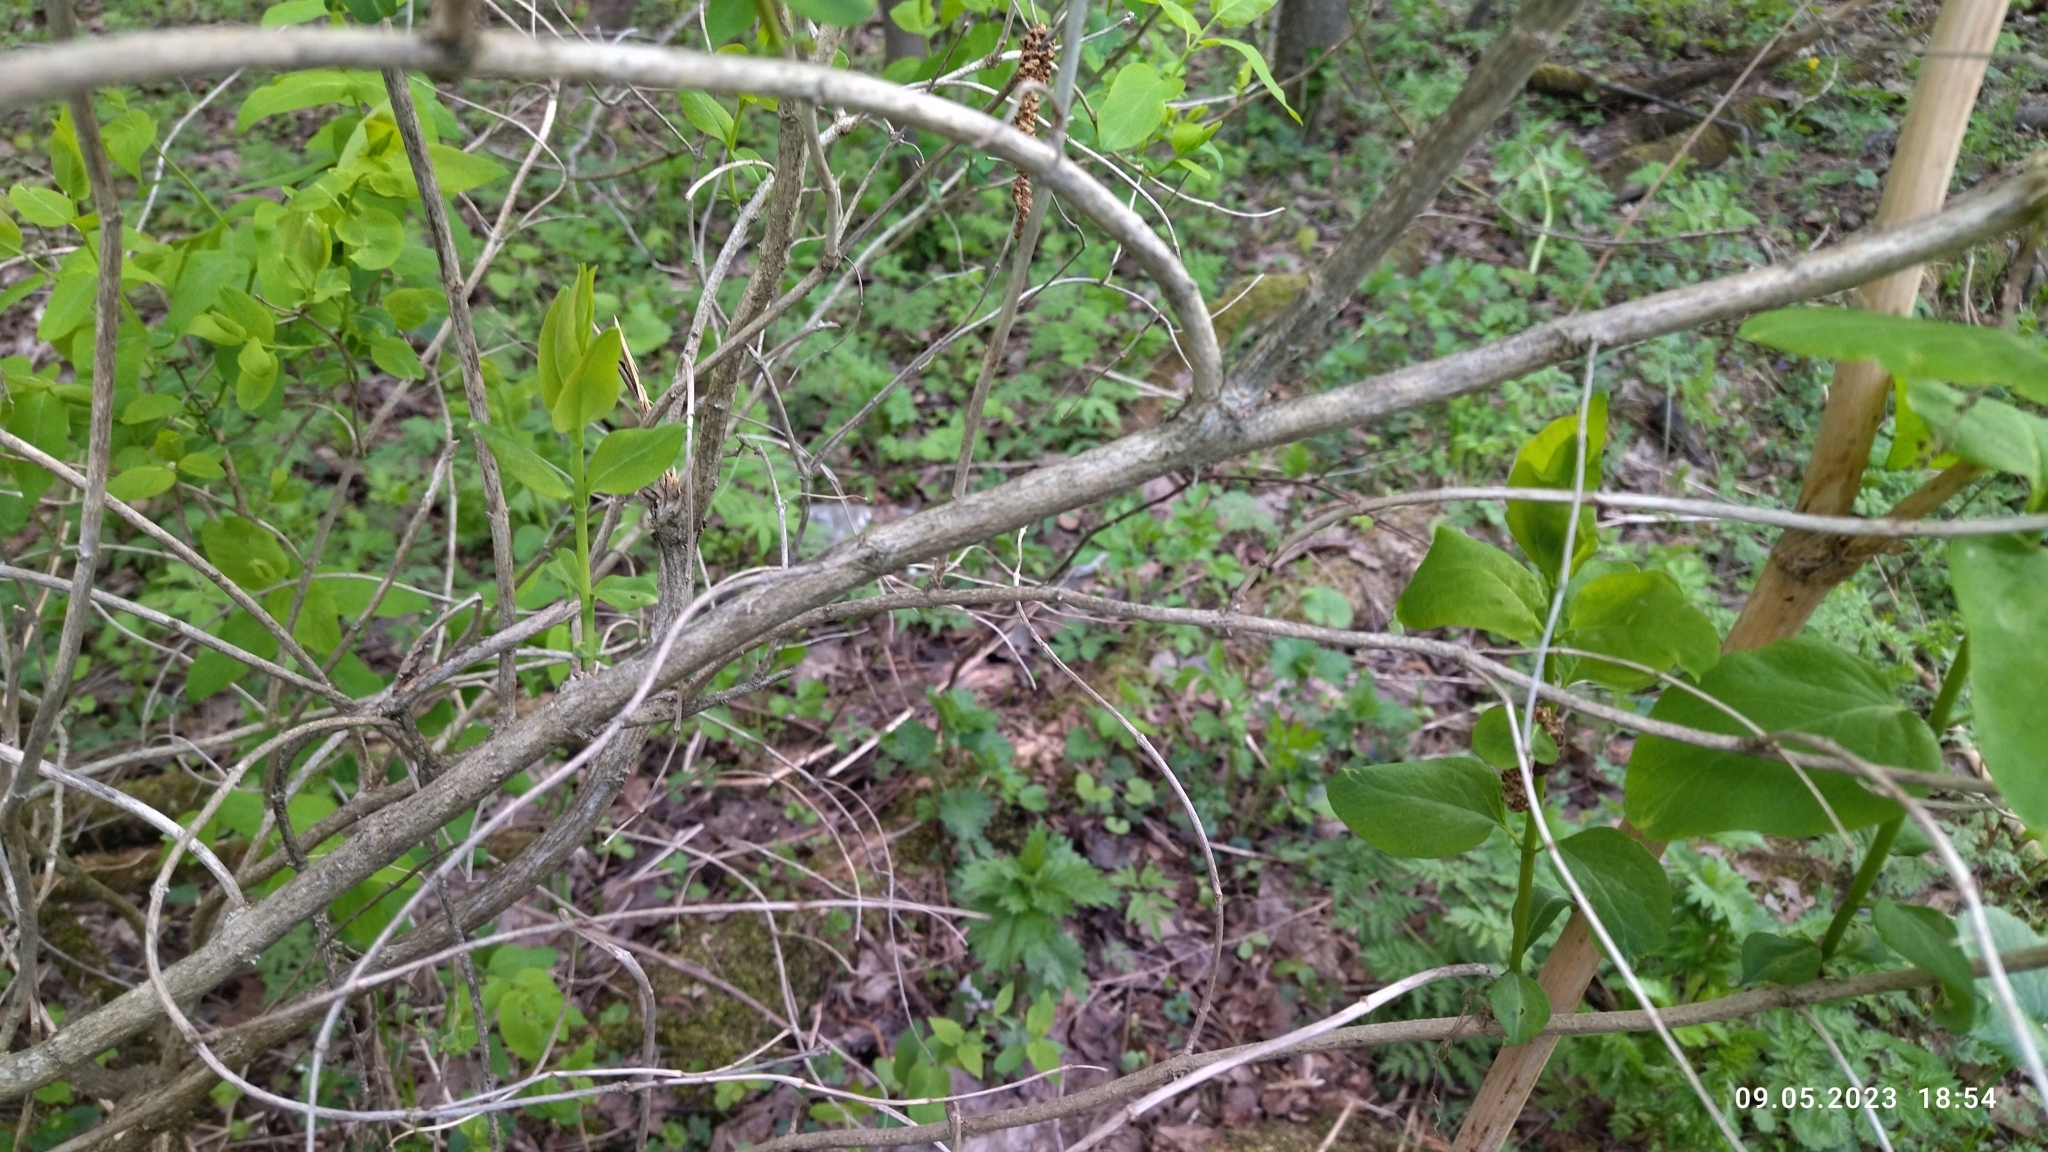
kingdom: Plantae
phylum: Tracheophyta
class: Magnoliopsida
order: Dipsacales
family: Caprifoliaceae
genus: Lonicera
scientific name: Lonicera tatarica
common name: Tatarian honeysuckle
